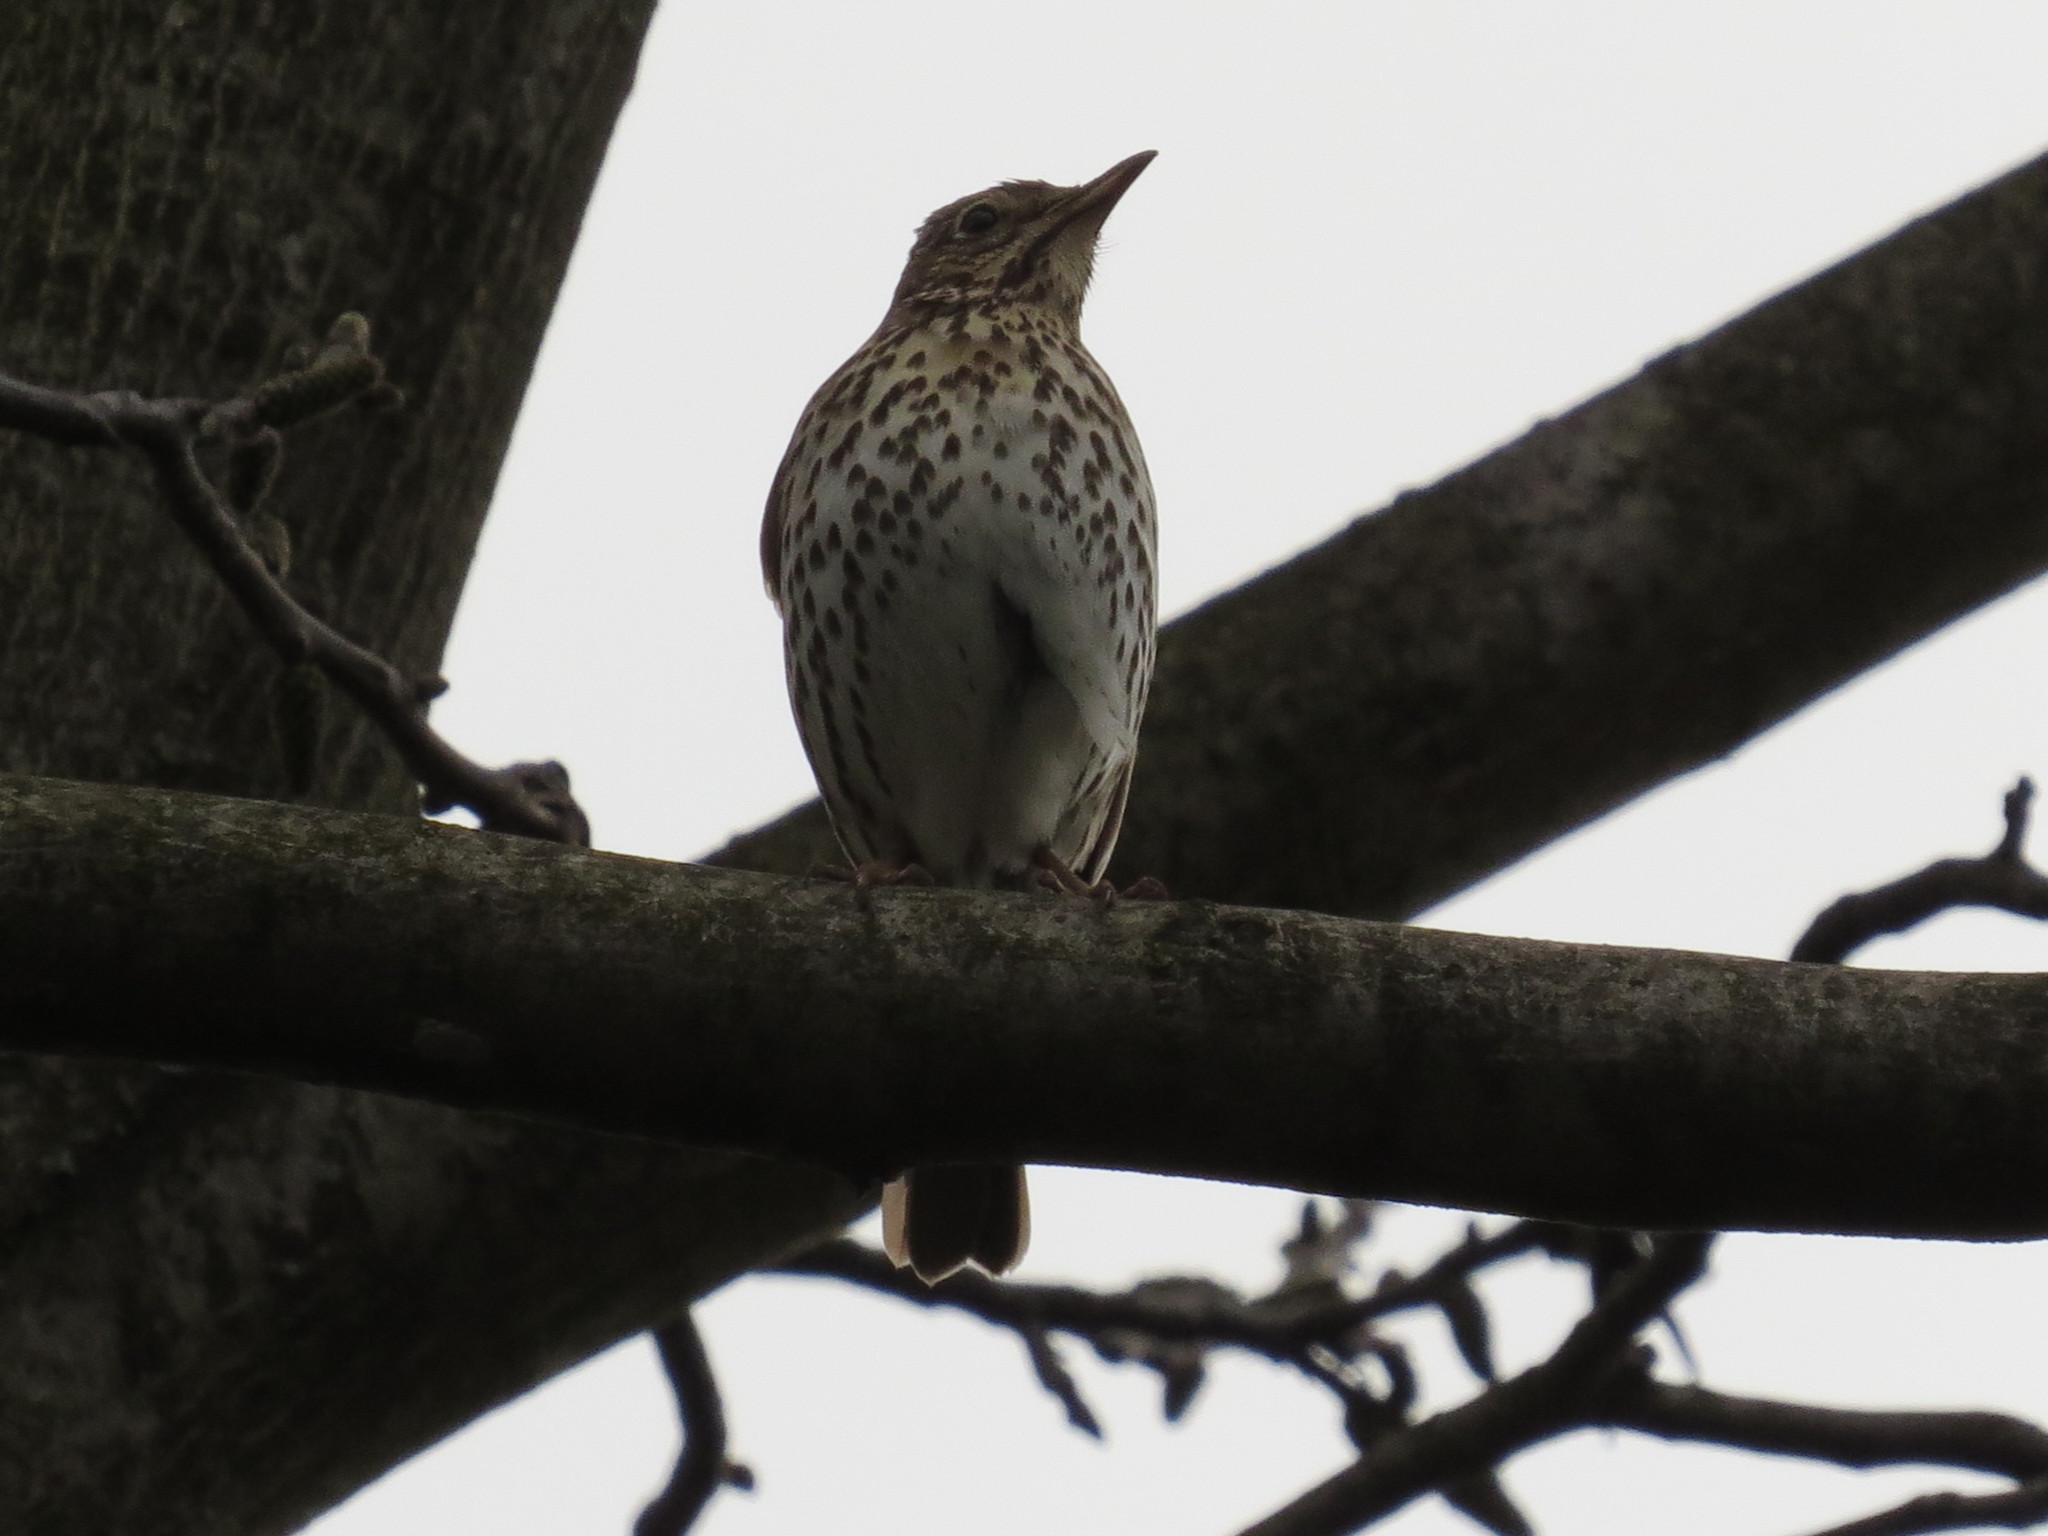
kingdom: Animalia
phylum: Chordata
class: Aves
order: Passeriformes
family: Turdidae
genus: Turdus
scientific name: Turdus philomelos
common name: Song thrush
